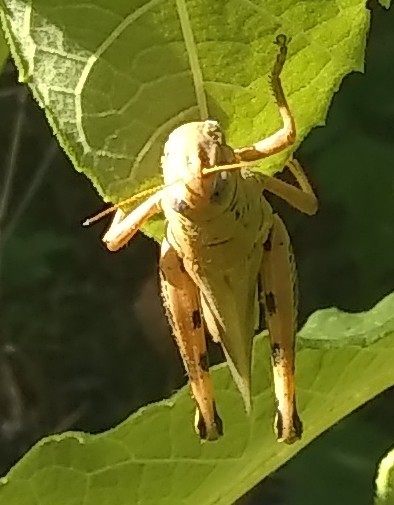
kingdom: Animalia
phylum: Arthropoda
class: Insecta
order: Orthoptera
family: Acrididae
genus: Melanoplus
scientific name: Melanoplus differentialis
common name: Differential grasshopper
